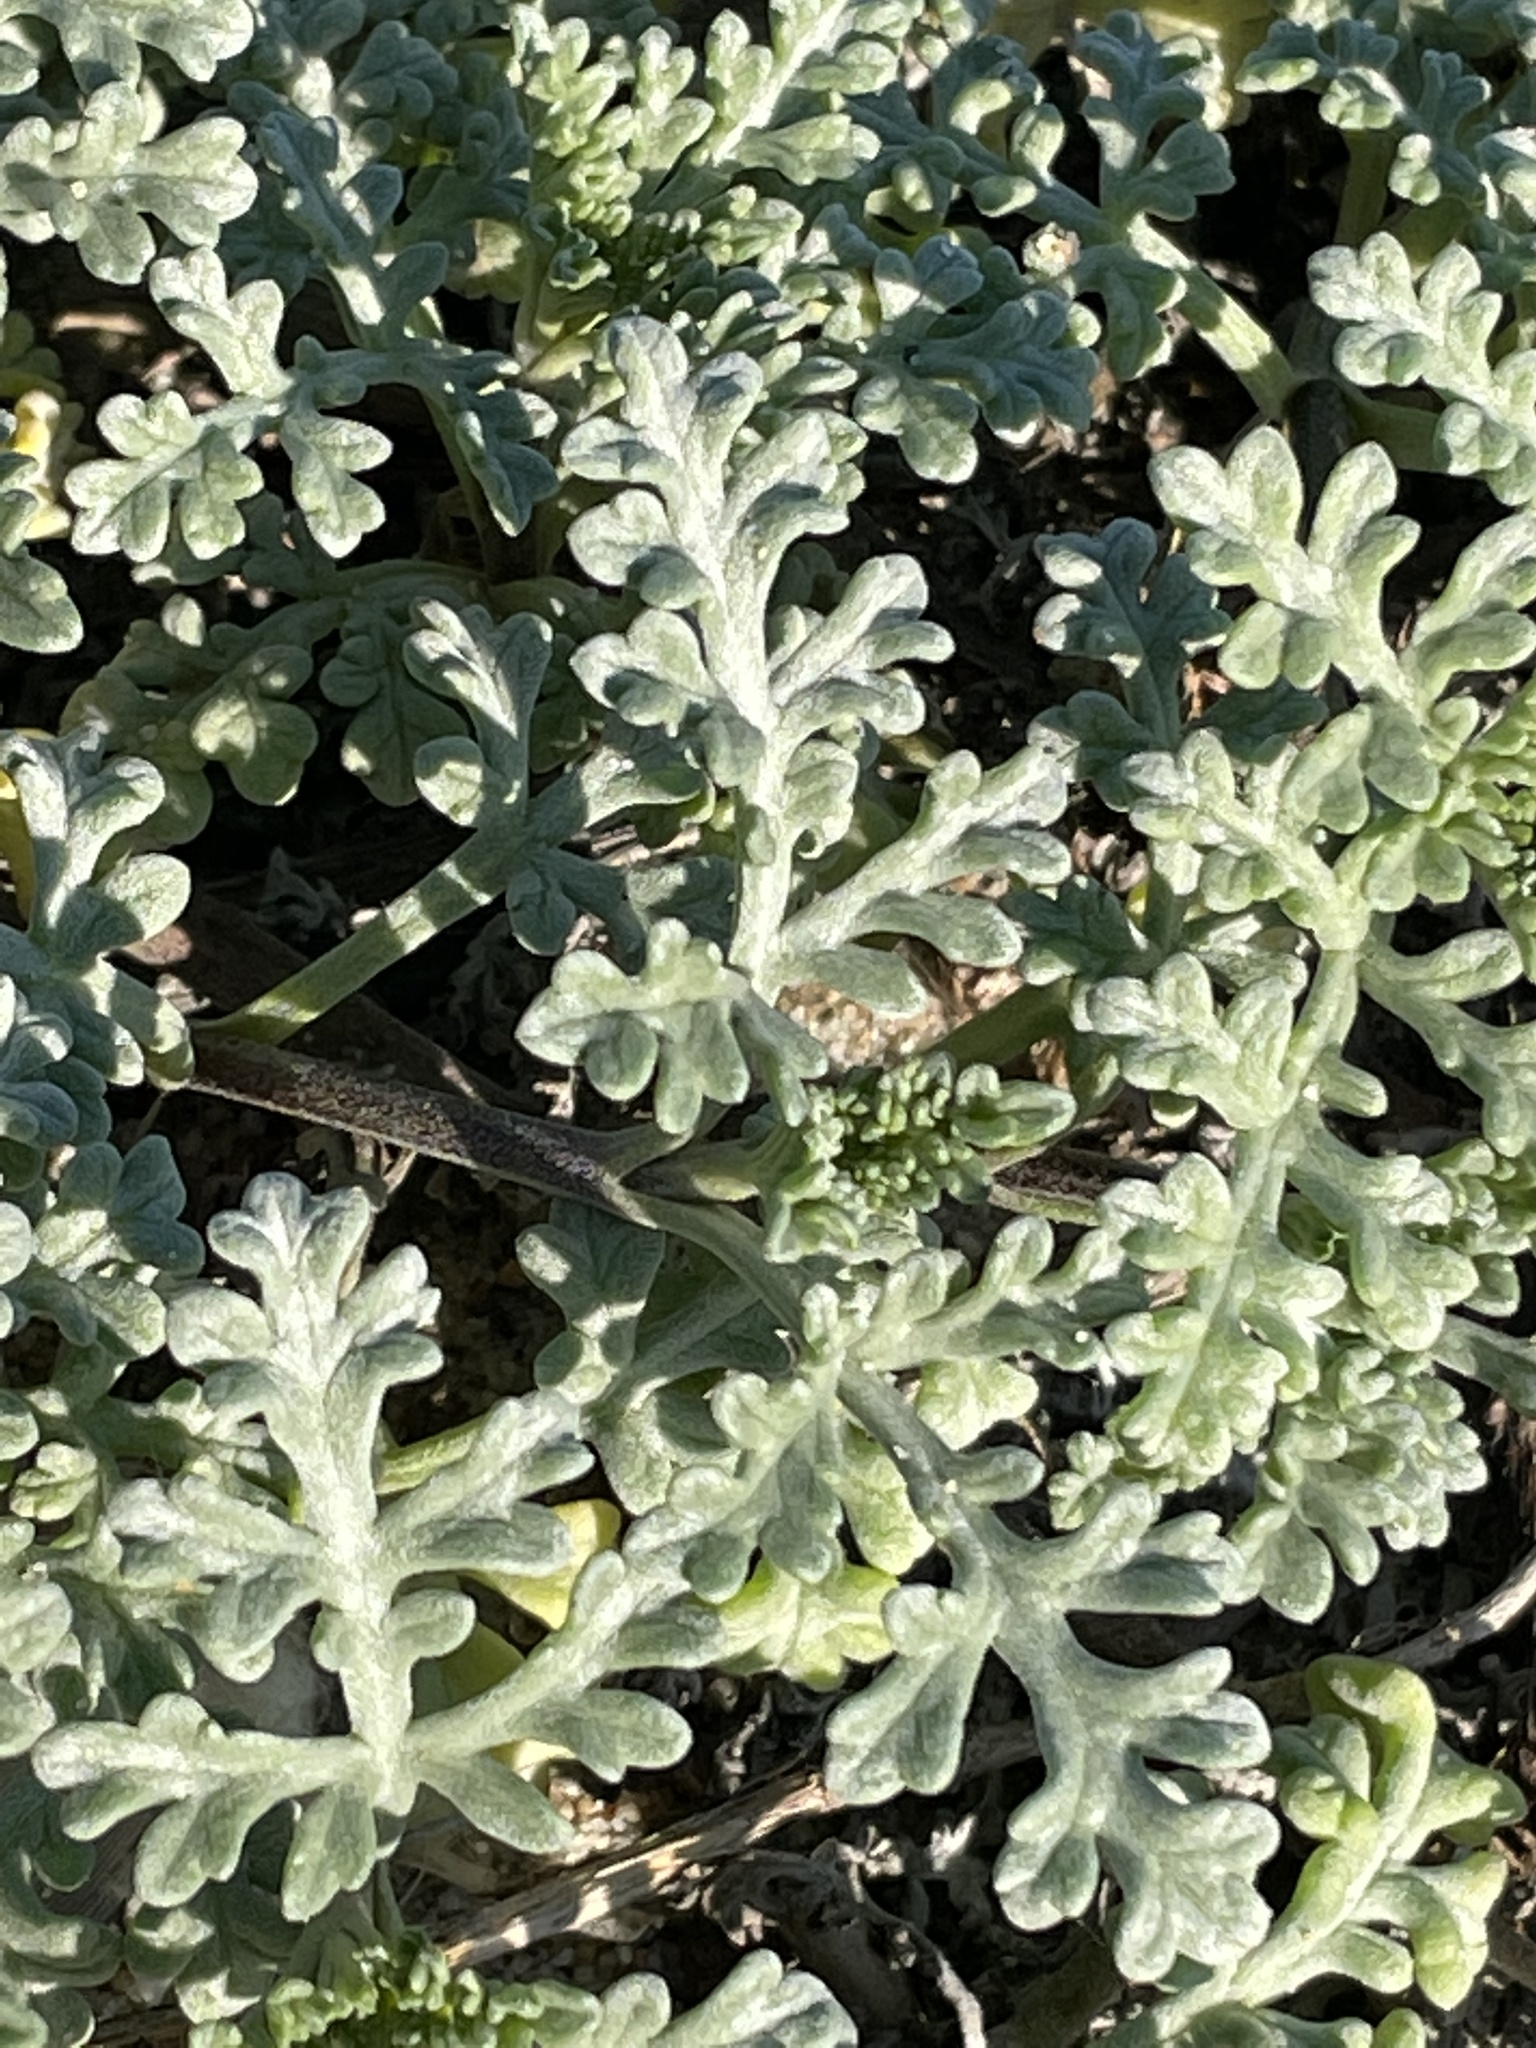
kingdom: Plantae
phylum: Tracheophyta
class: Magnoliopsida
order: Asterales
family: Asteraceae
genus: Ambrosia
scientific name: Ambrosia chamissonis
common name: Beachbur
